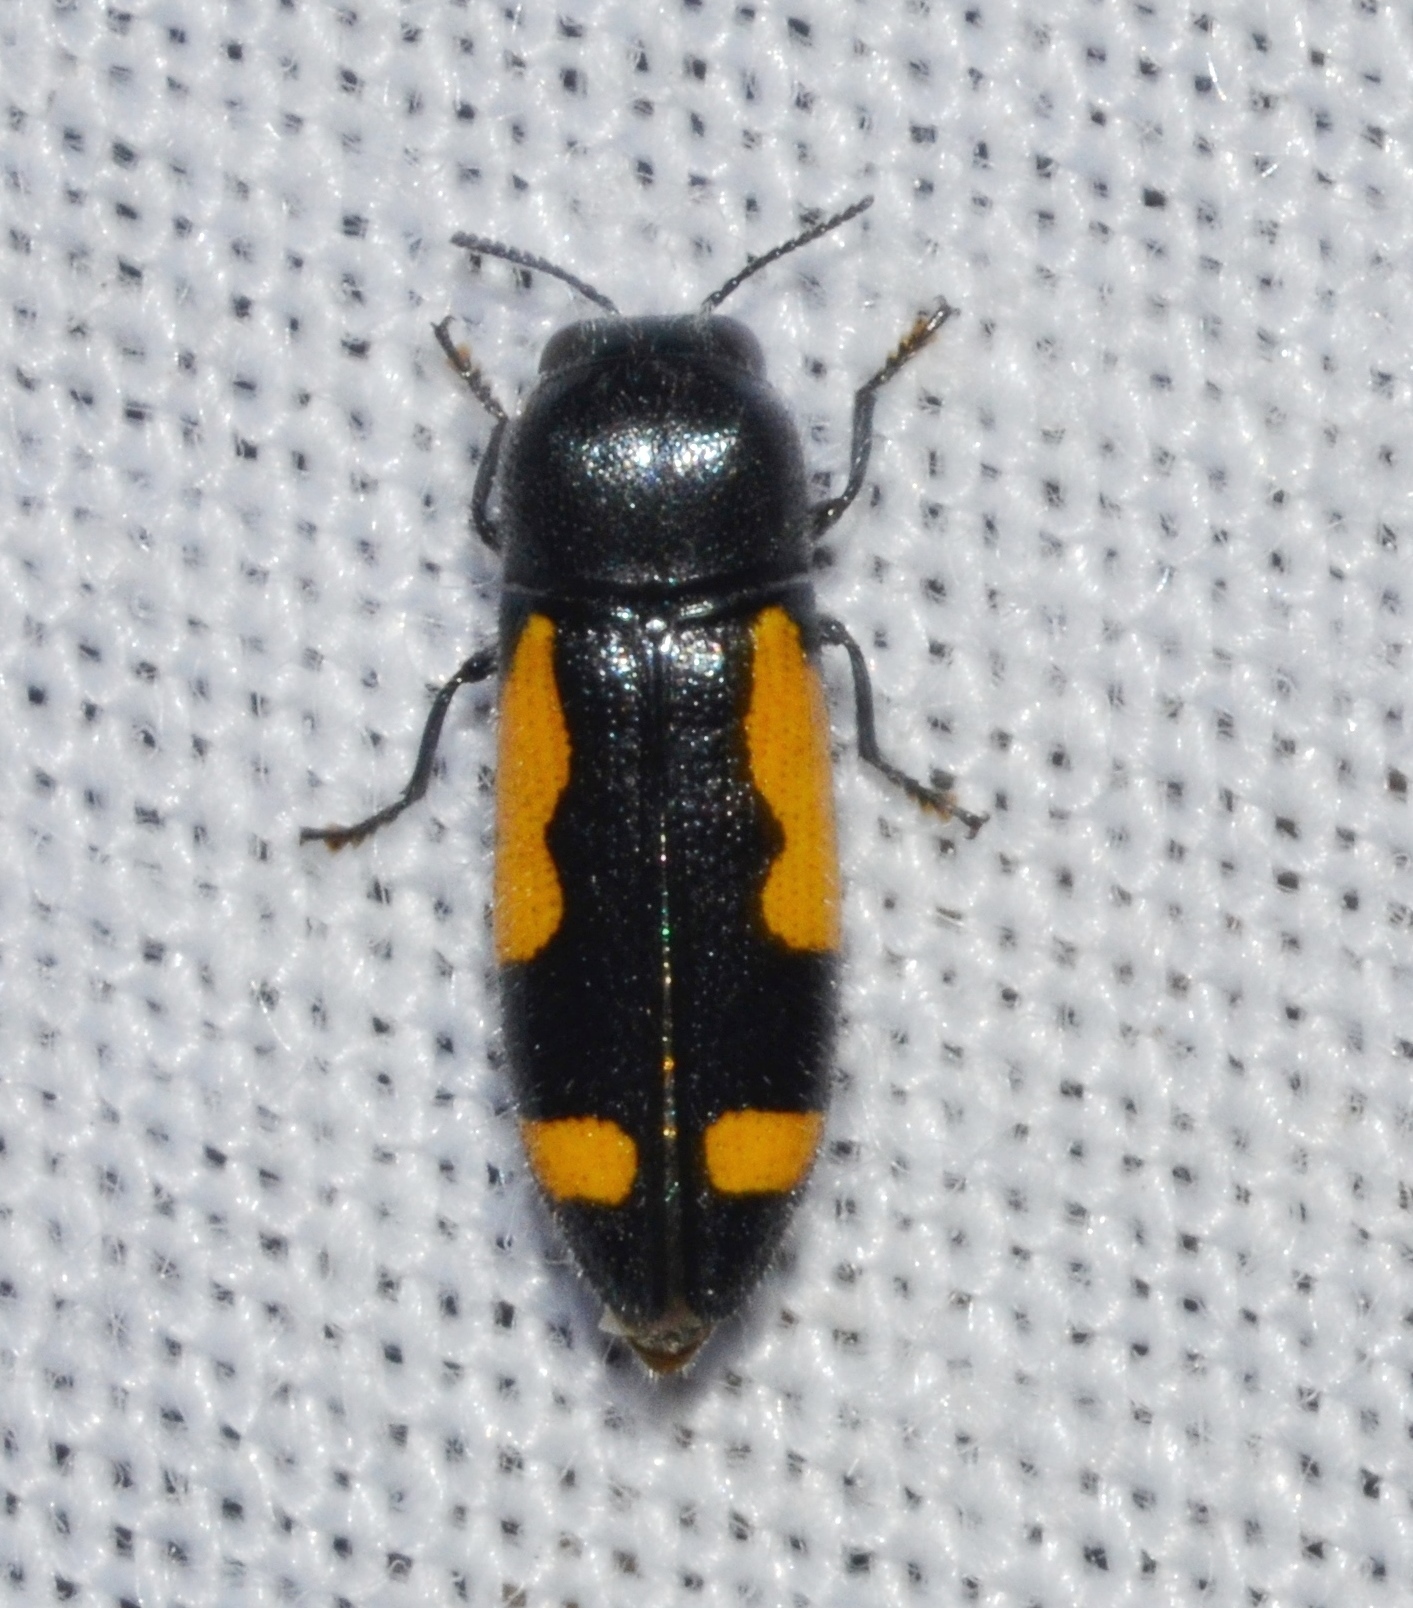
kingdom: Animalia
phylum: Arthropoda
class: Insecta
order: Coleoptera
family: Buprestidae
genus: Ptosima
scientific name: Ptosima gibbicollis
